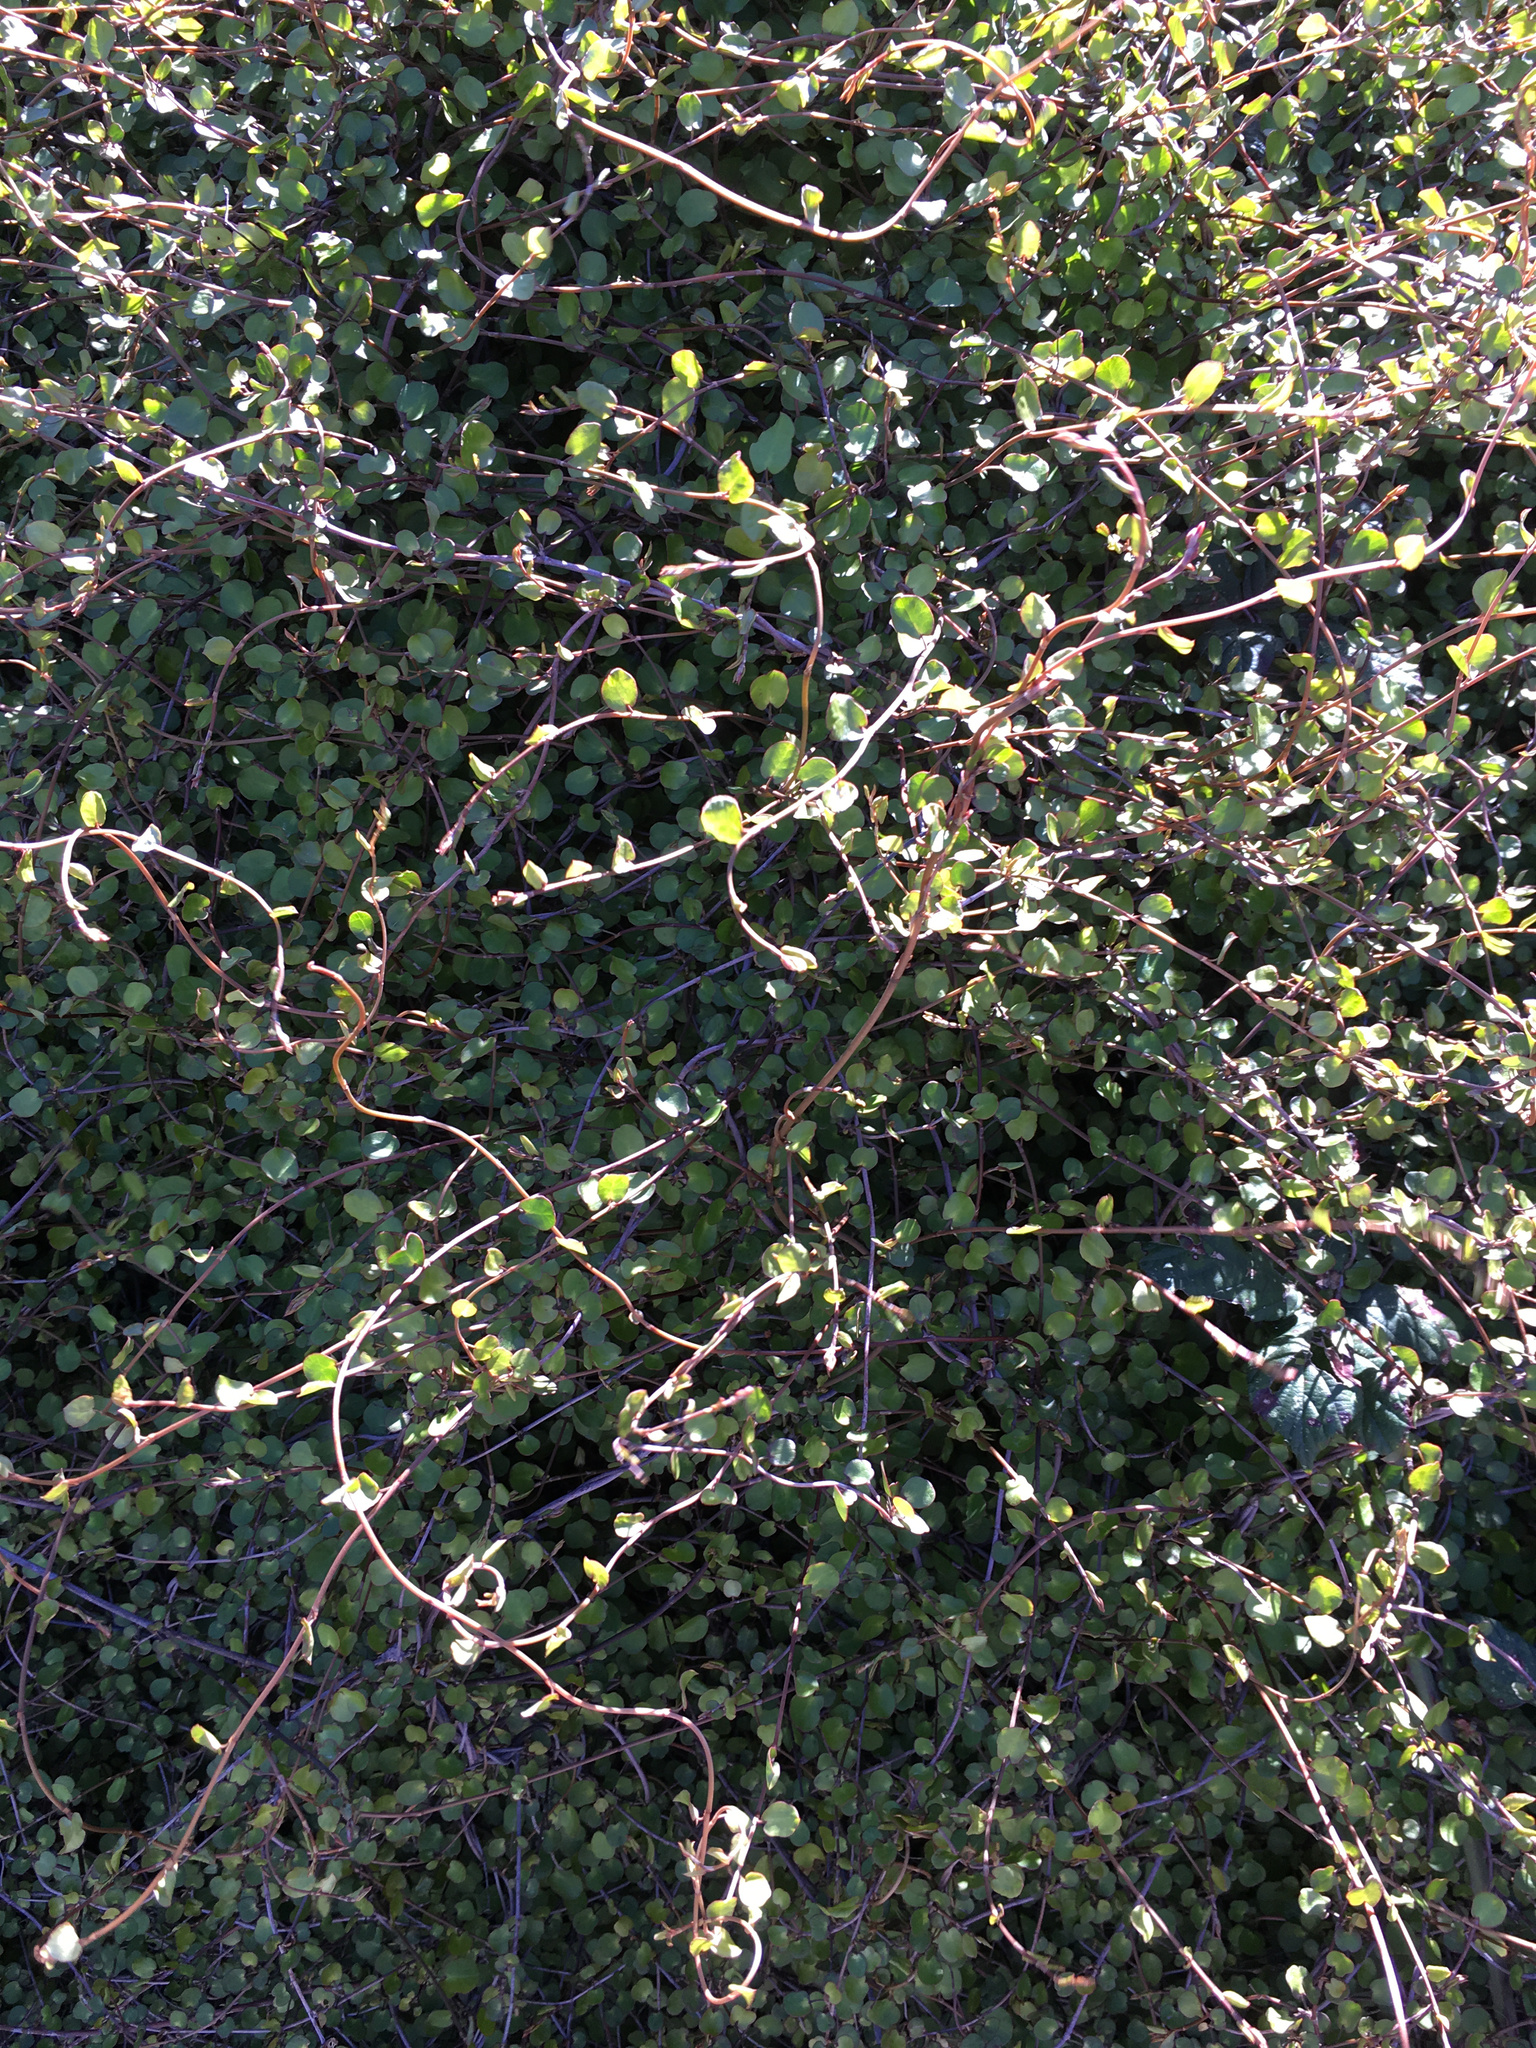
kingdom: Plantae
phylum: Tracheophyta
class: Magnoliopsida
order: Caryophyllales
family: Polygonaceae
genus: Muehlenbeckia
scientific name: Muehlenbeckia complexa
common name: Wireplant
